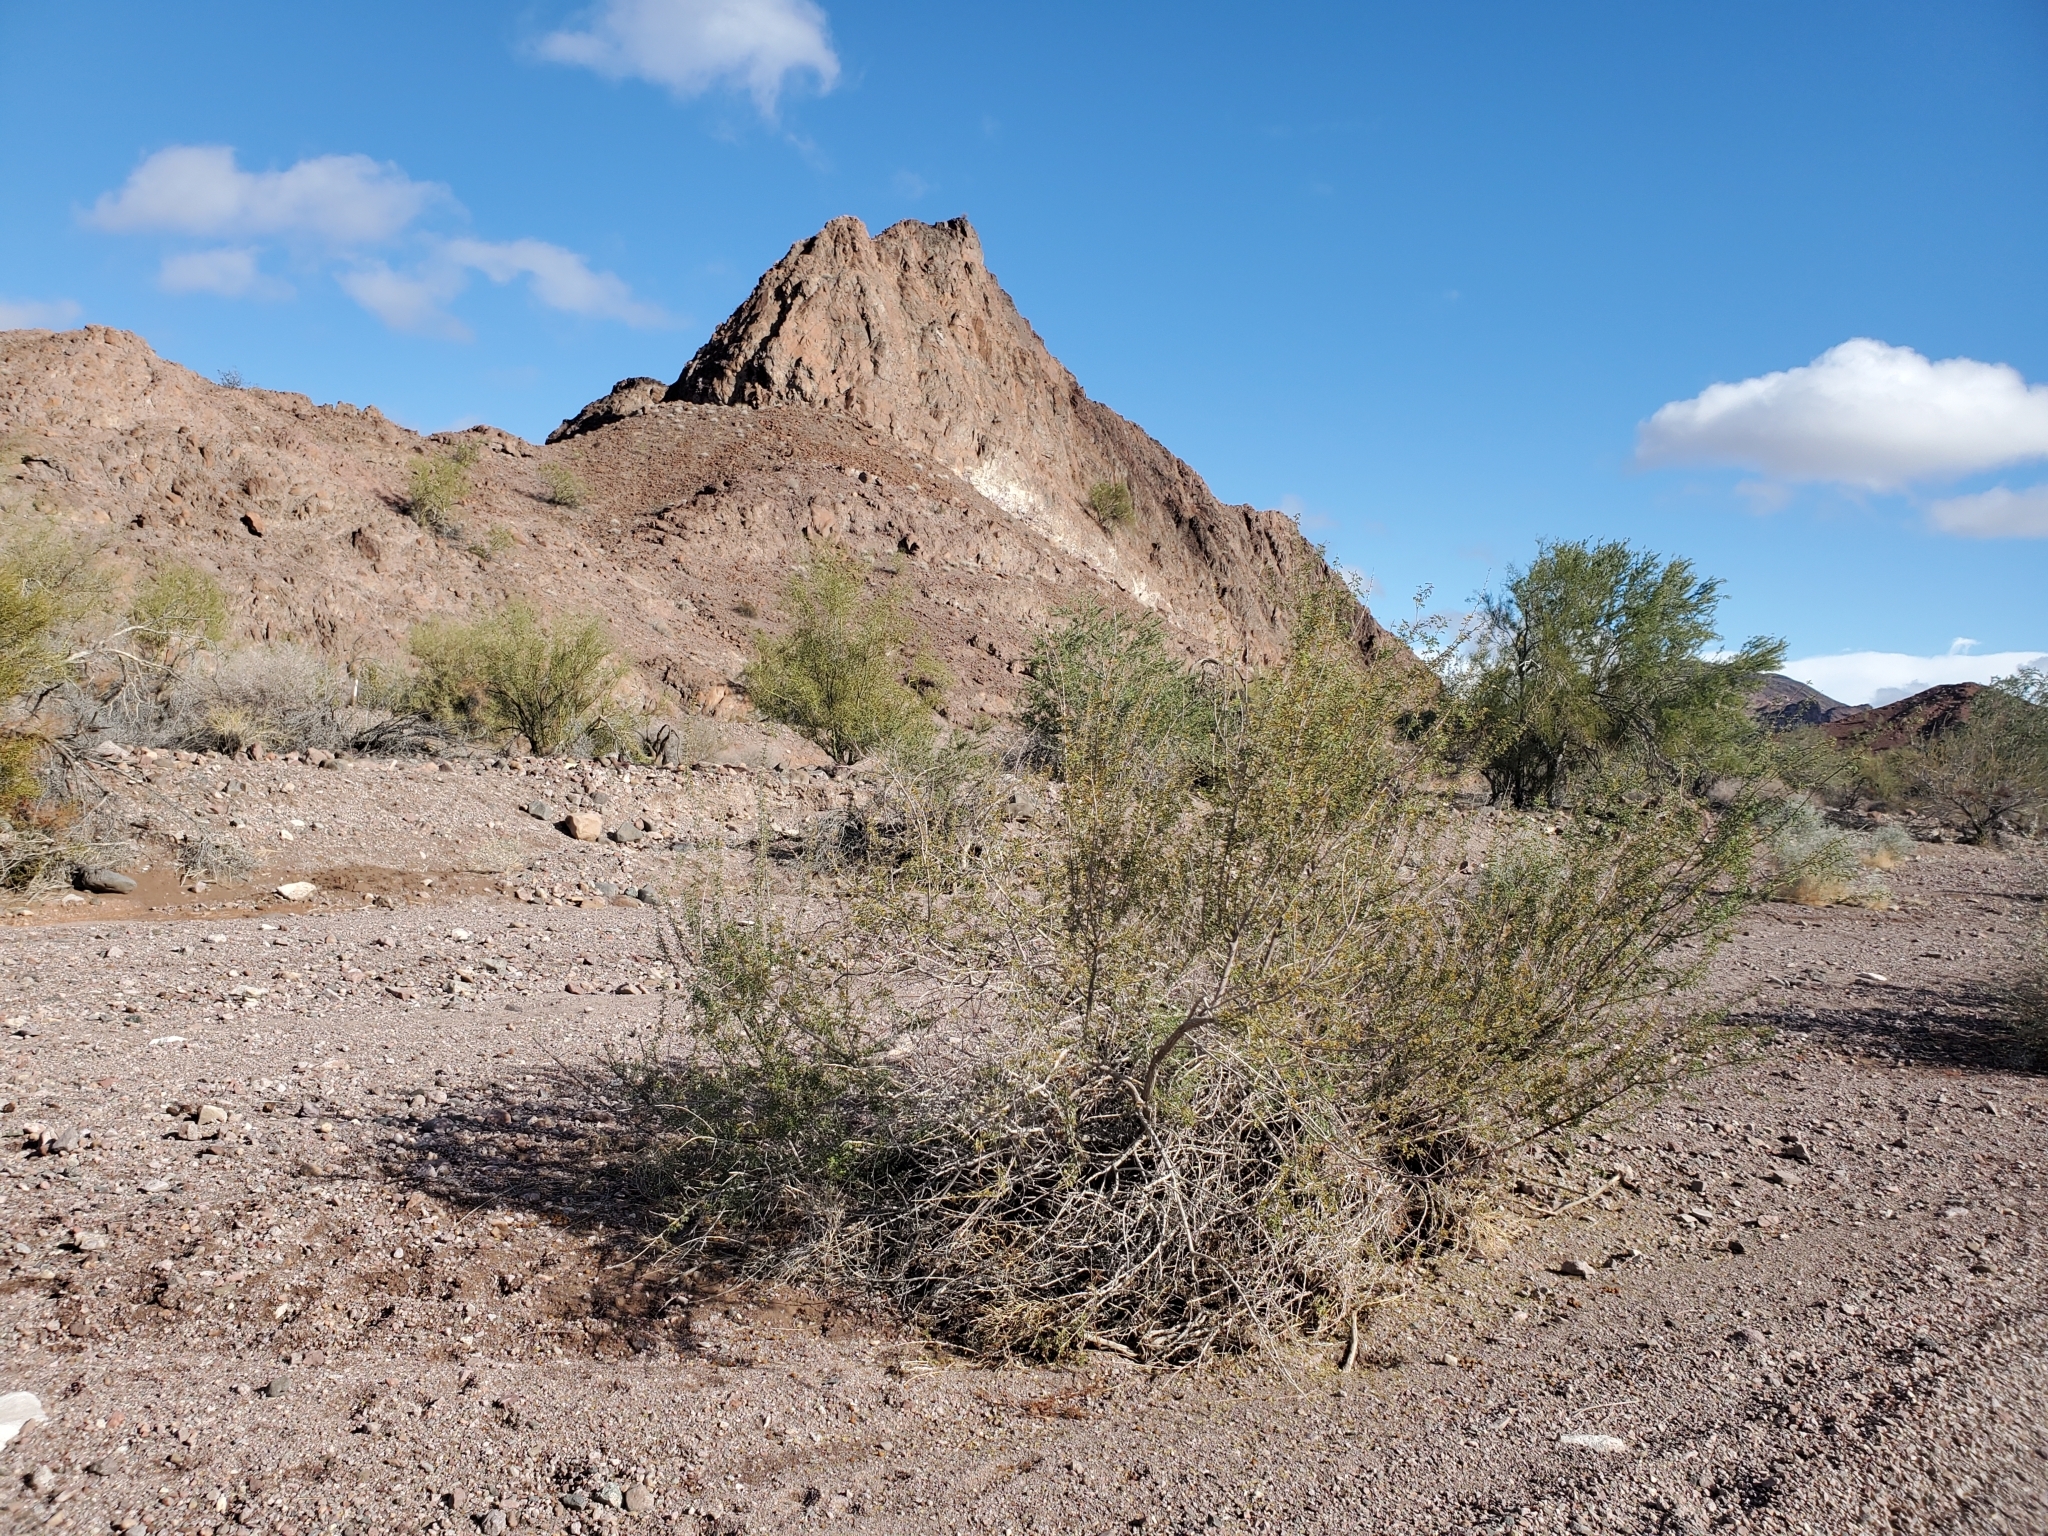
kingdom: Plantae
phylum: Tracheophyta
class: Magnoliopsida
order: Fabales
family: Fabaceae
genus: Senegalia
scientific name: Senegalia greggii
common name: Texas-mimosa
